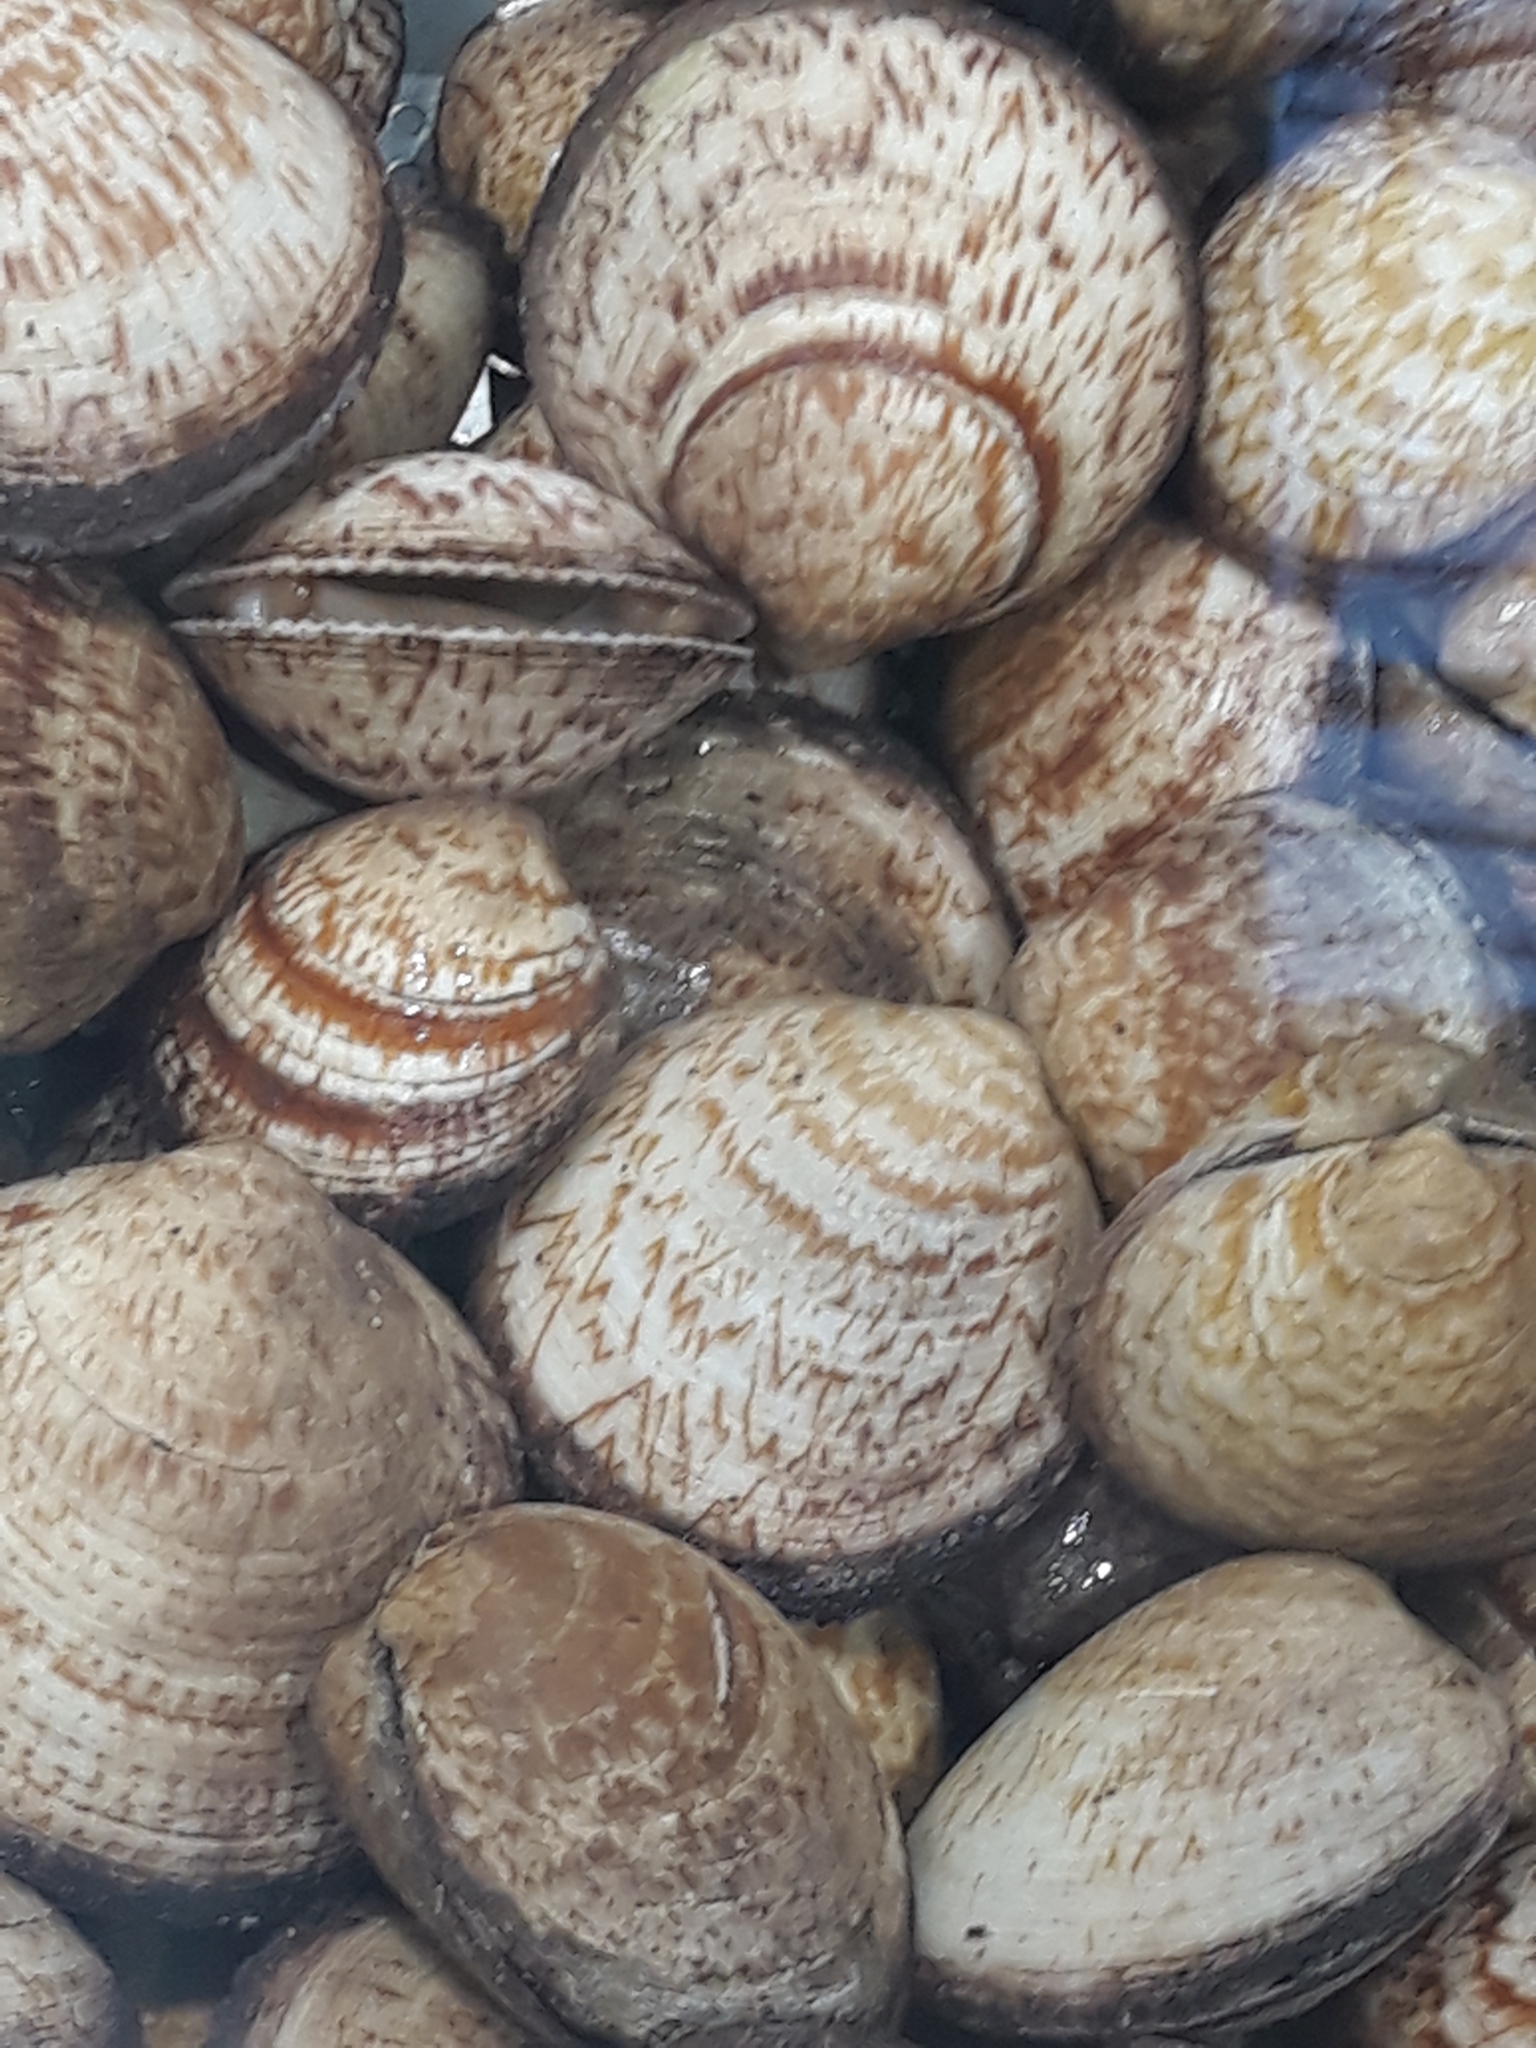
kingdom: Animalia
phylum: Mollusca
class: Bivalvia
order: Arcida
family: Glycymerididae
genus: Glycymeris
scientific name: Glycymeris glycymeris
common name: Dog-cockle
